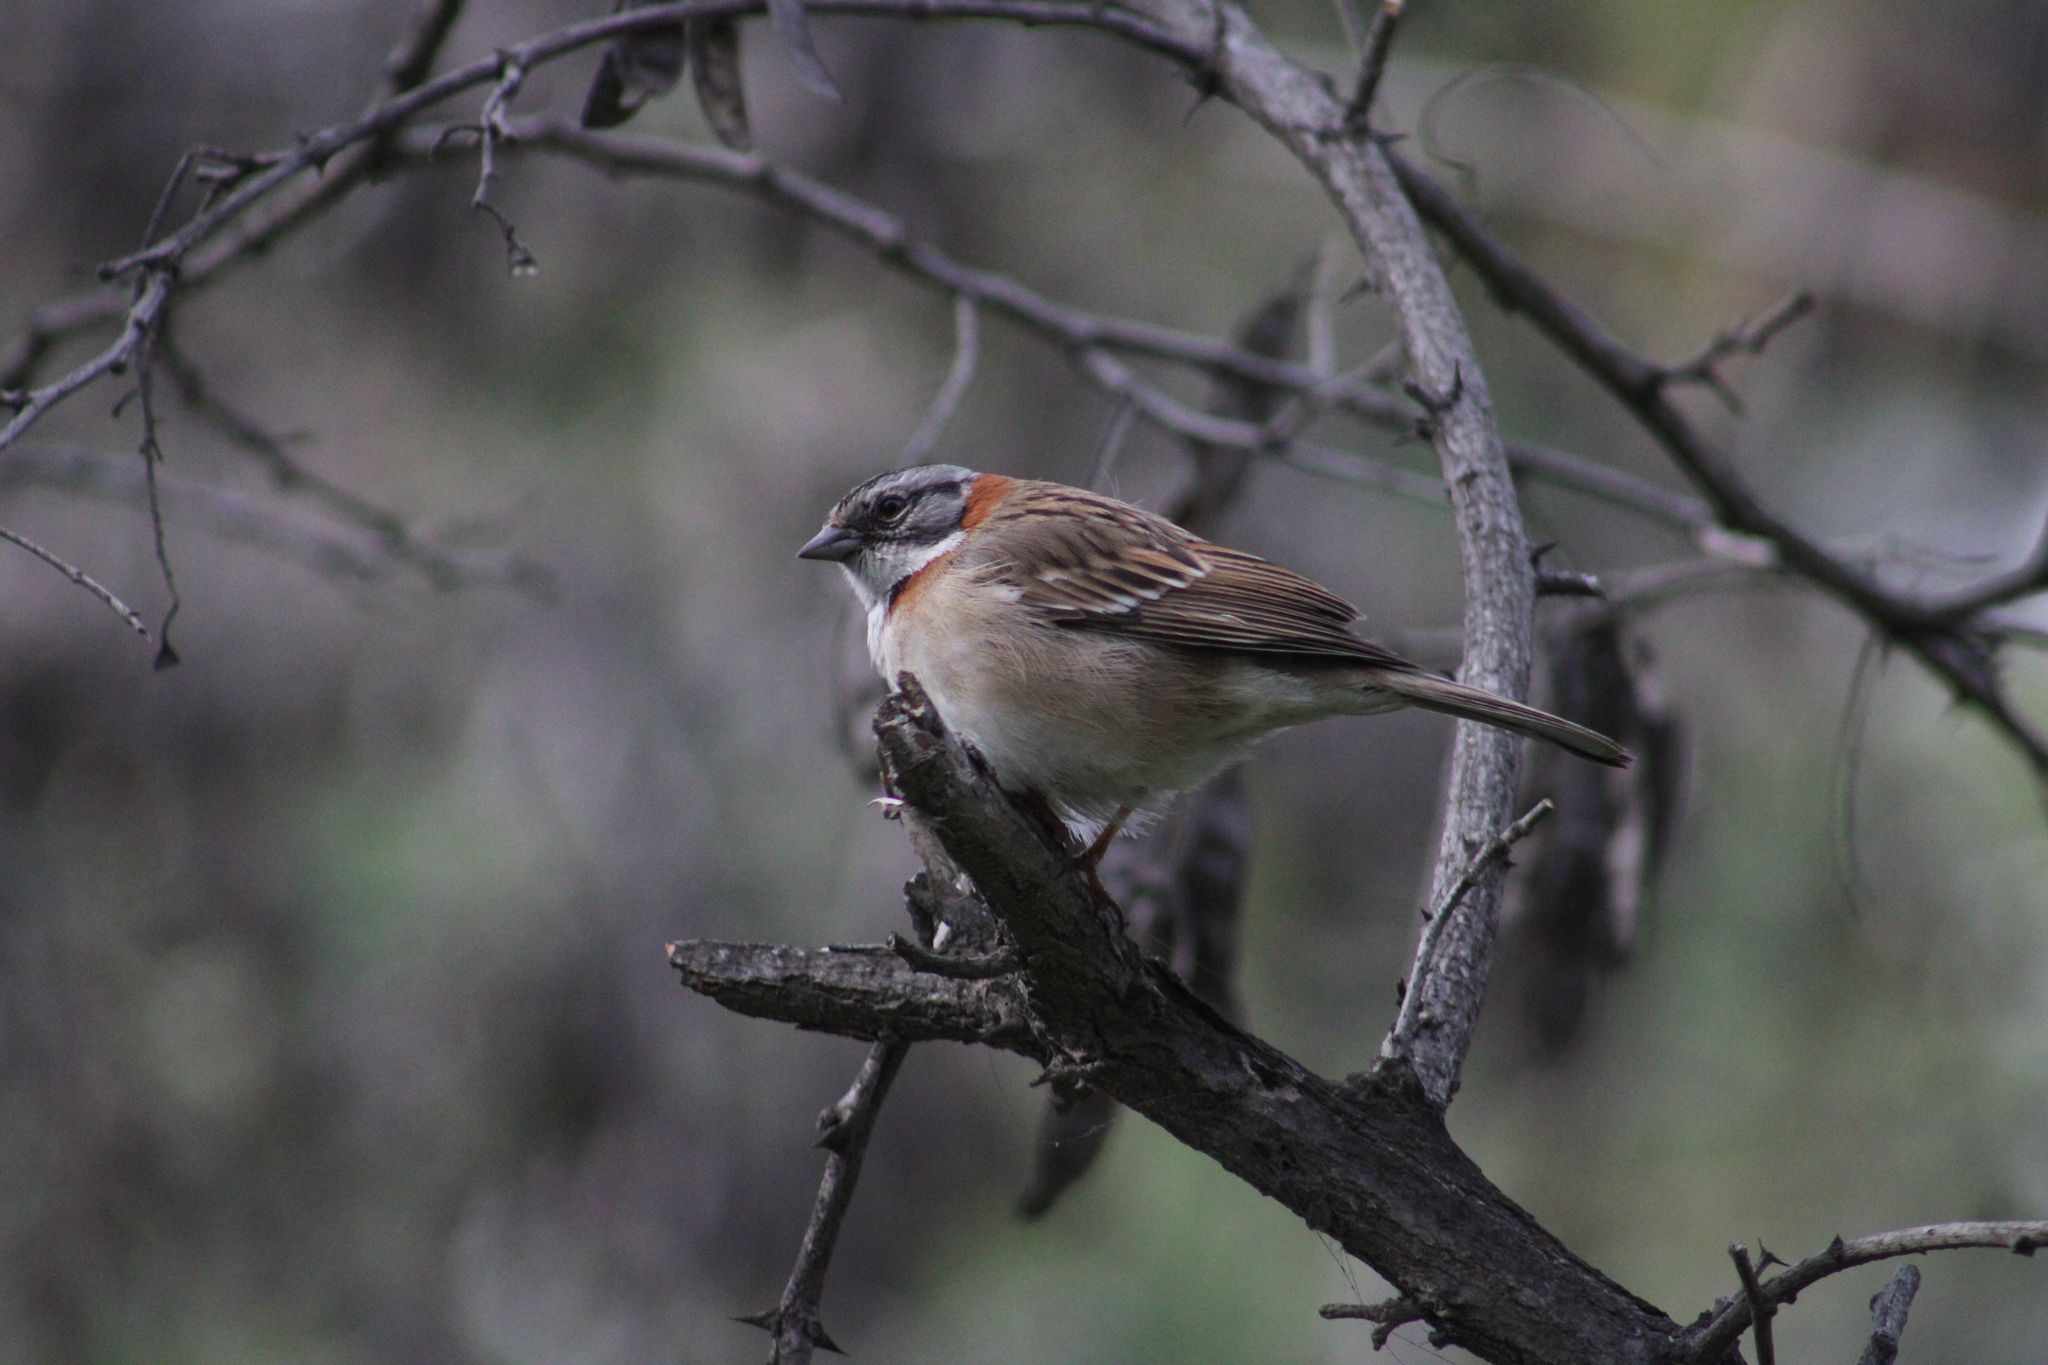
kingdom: Animalia
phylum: Chordata
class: Aves
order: Passeriformes
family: Passerellidae
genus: Zonotrichia
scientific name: Zonotrichia capensis
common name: Rufous-collared sparrow
